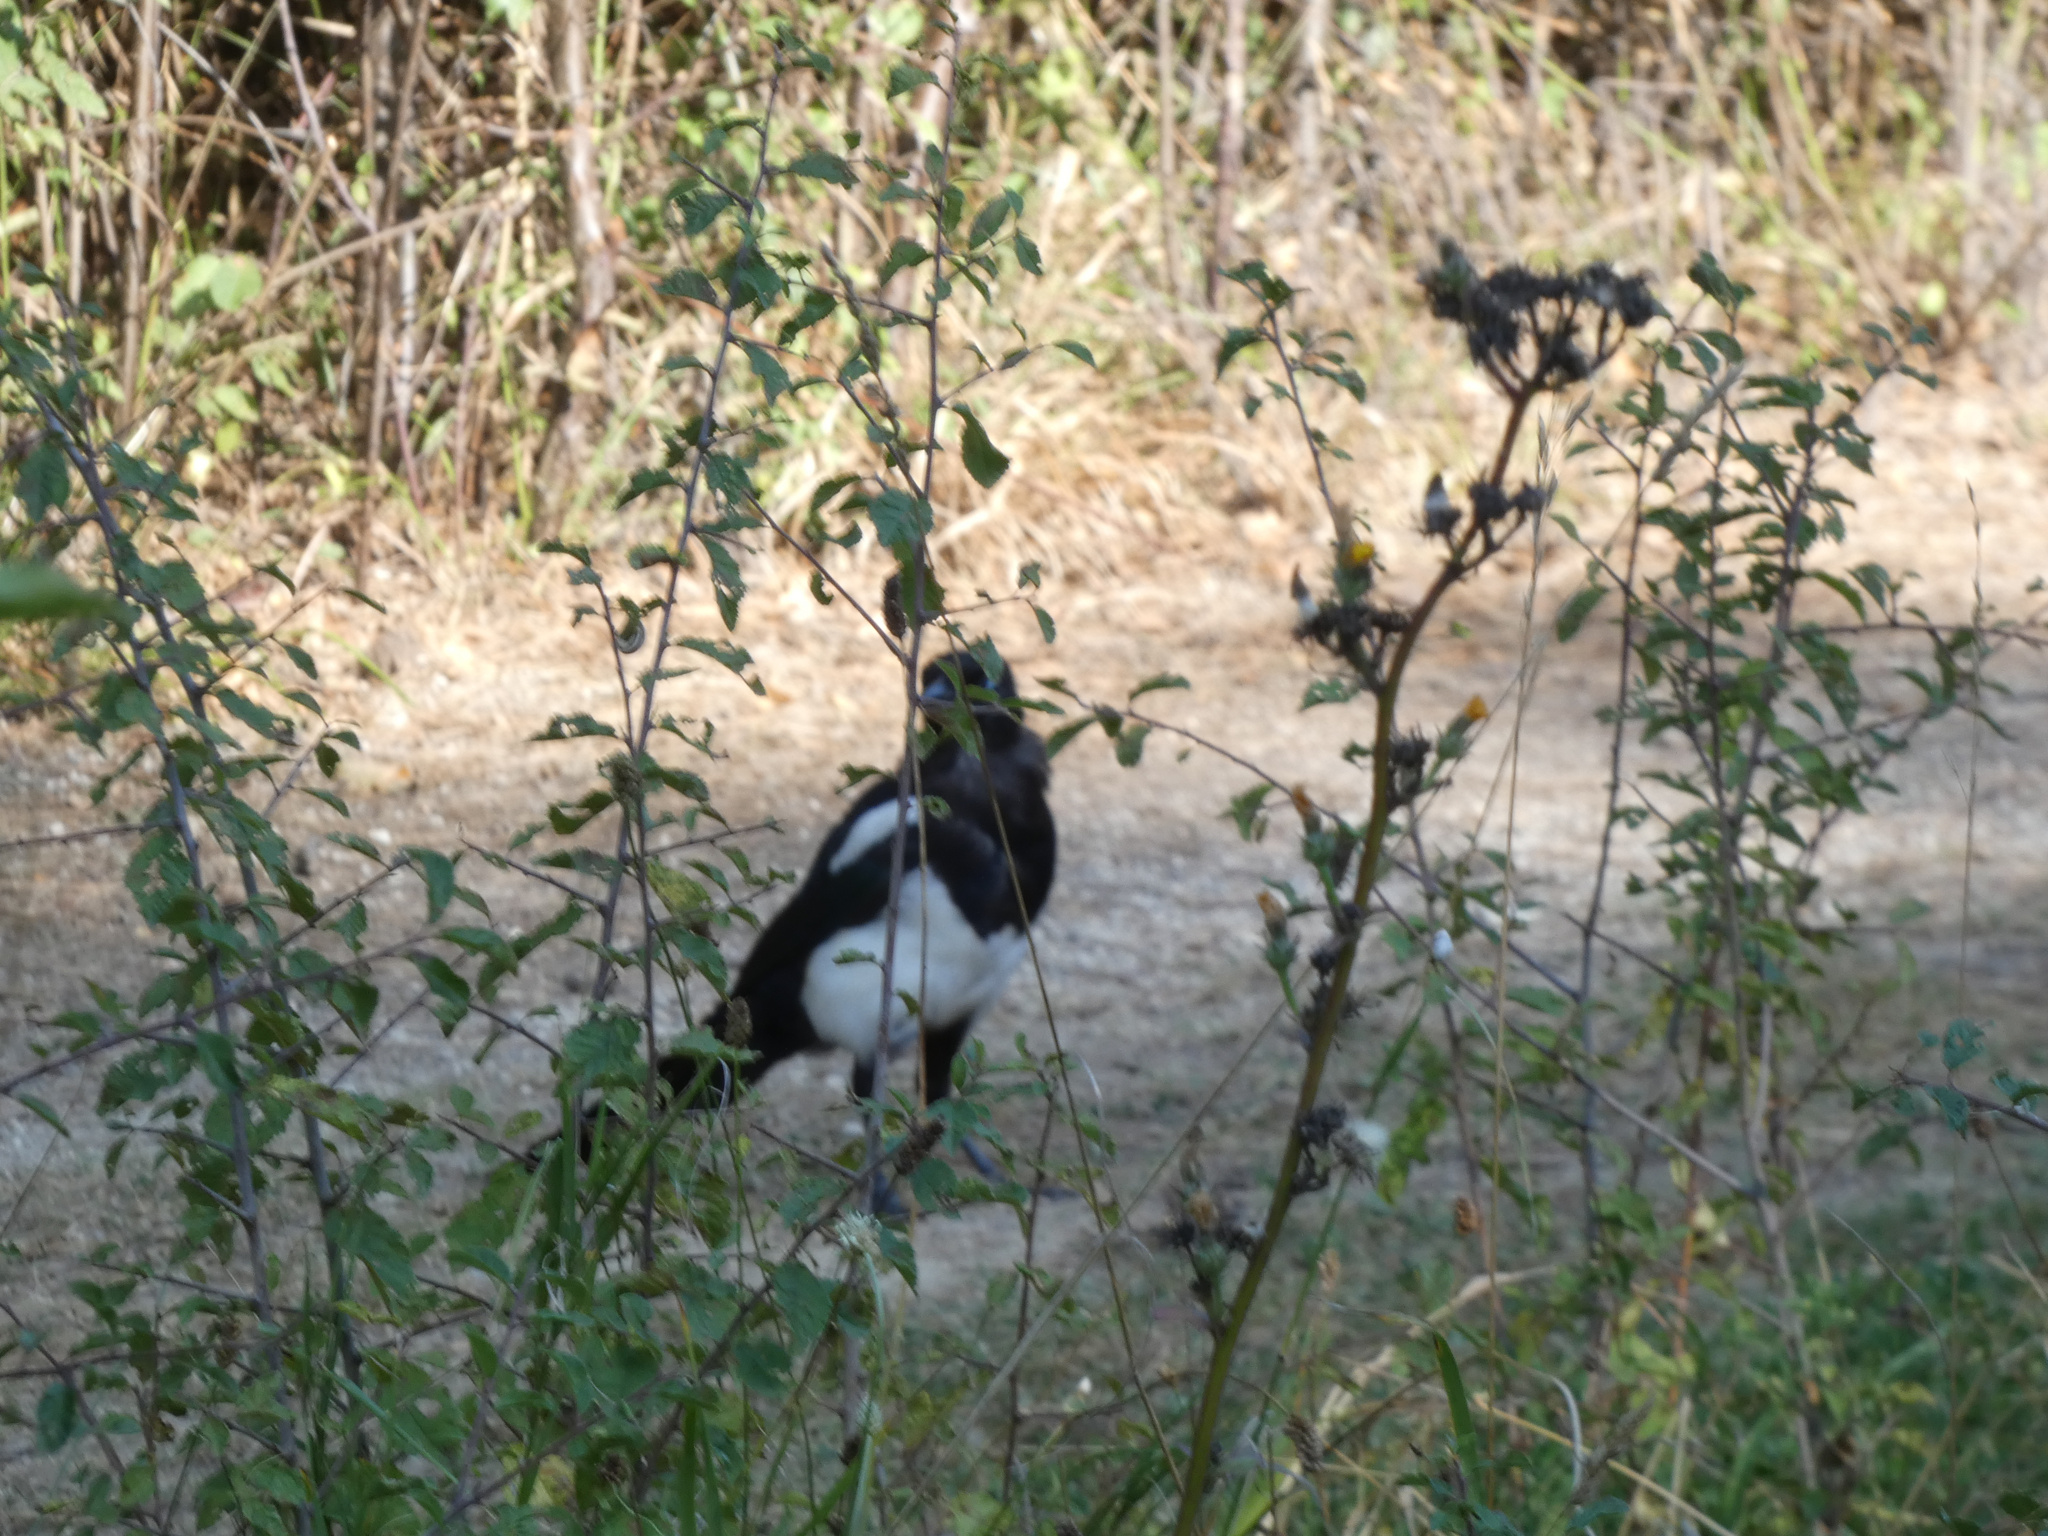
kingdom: Animalia
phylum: Chordata
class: Aves
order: Passeriformes
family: Corvidae
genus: Pica
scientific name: Pica pica
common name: Eurasian magpie
